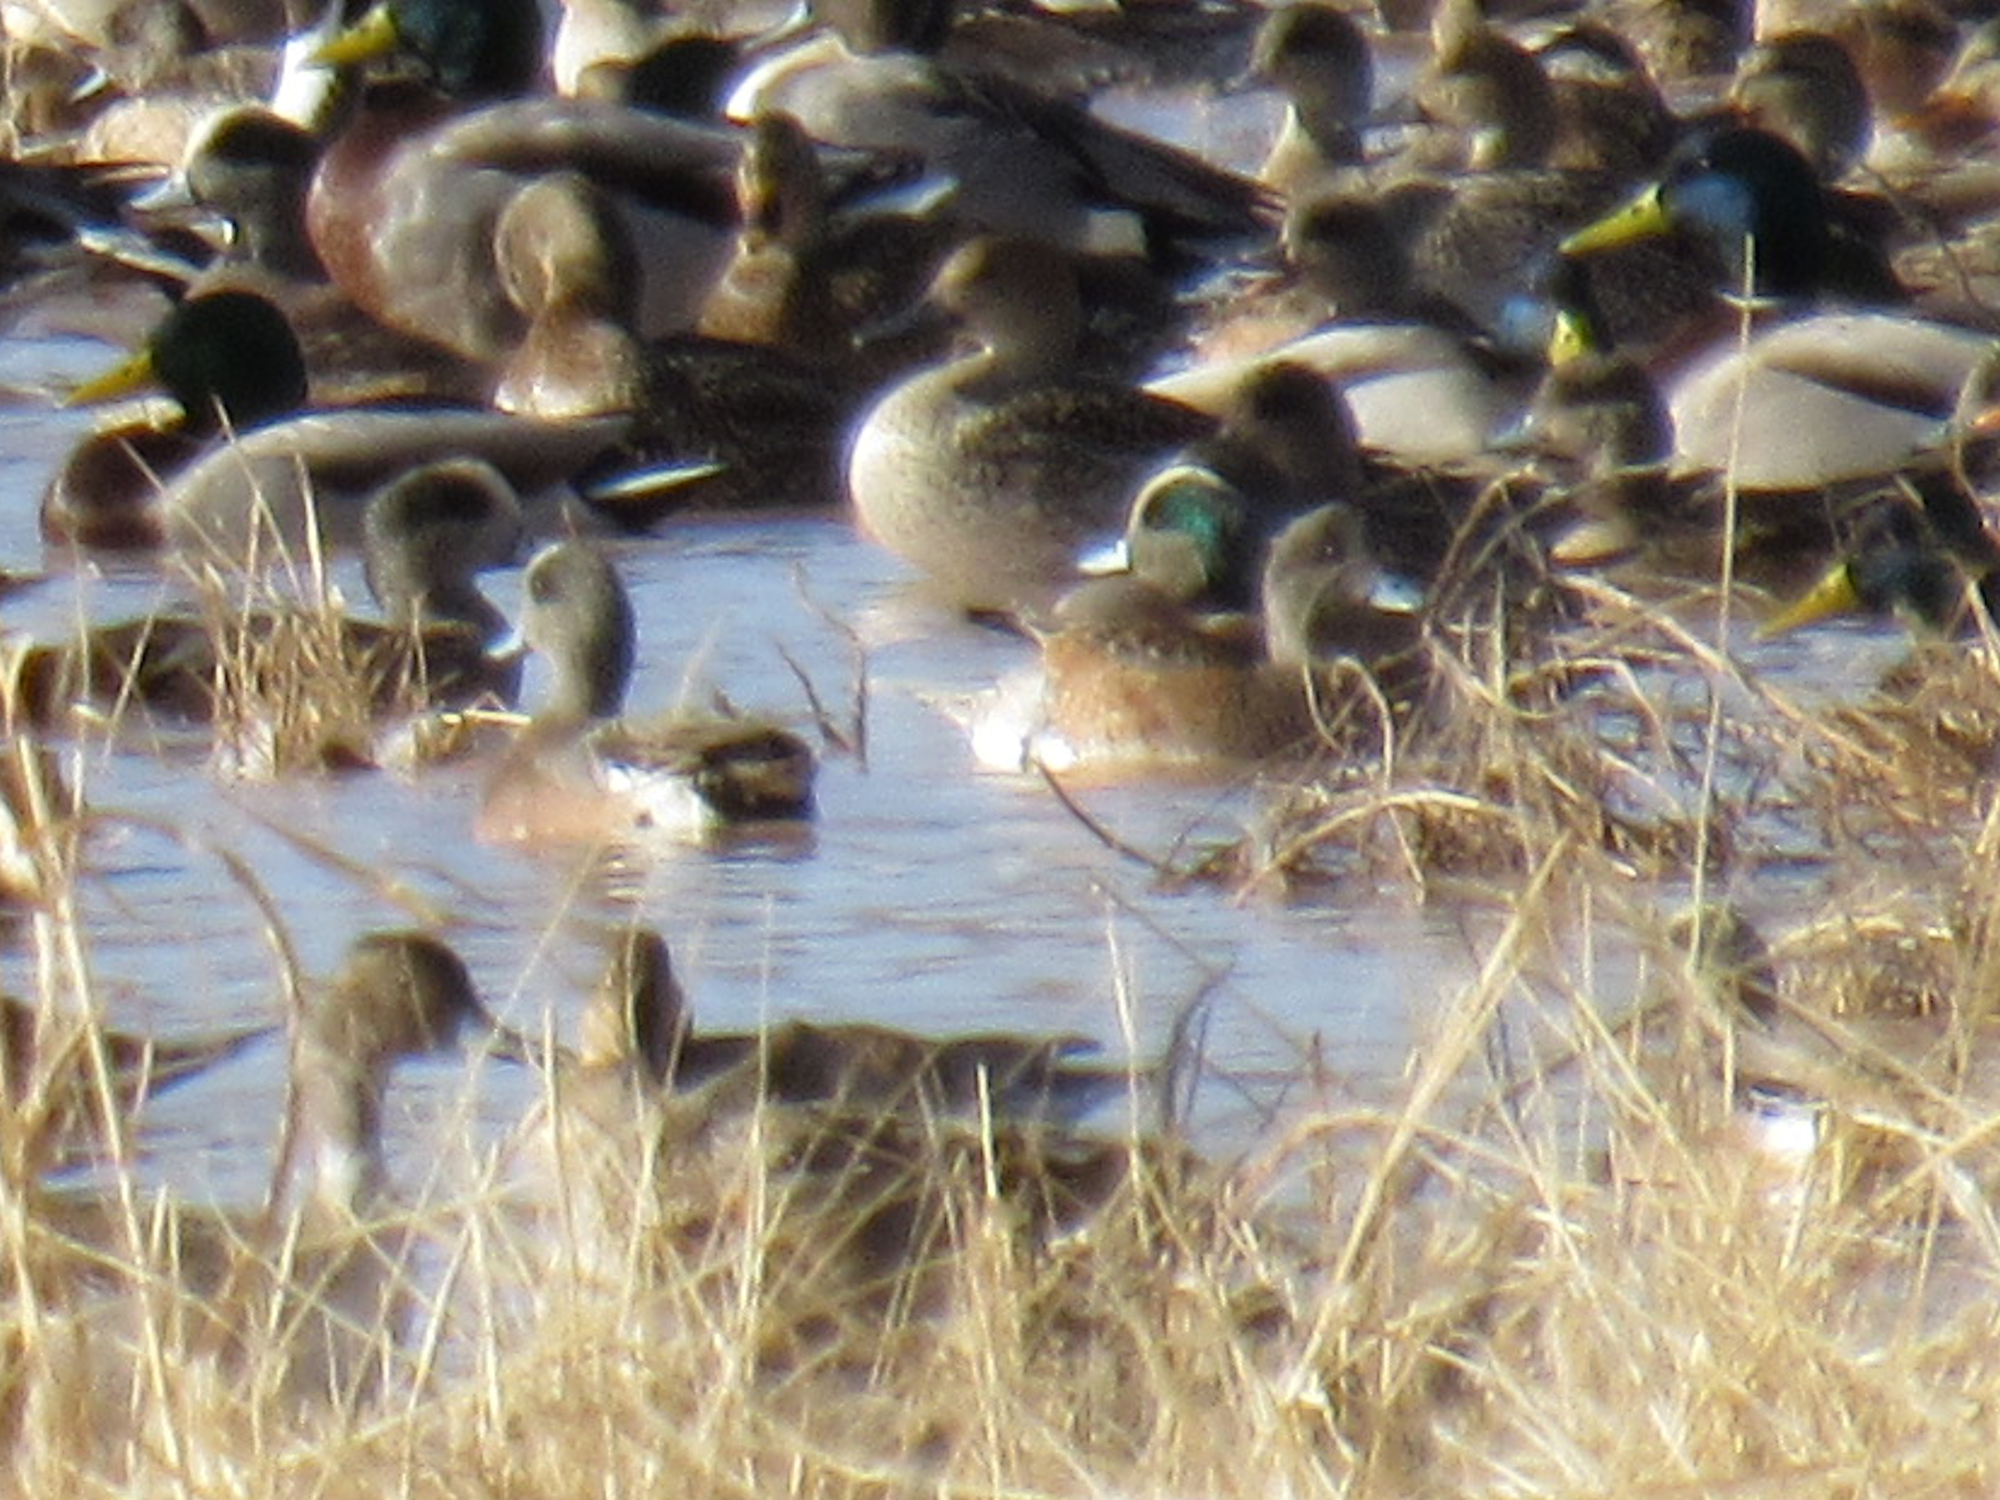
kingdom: Animalia
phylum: Chordata
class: Aves
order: Anseriformes
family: Anatidae
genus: Mareca
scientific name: Mareca americana
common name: American wigeon
